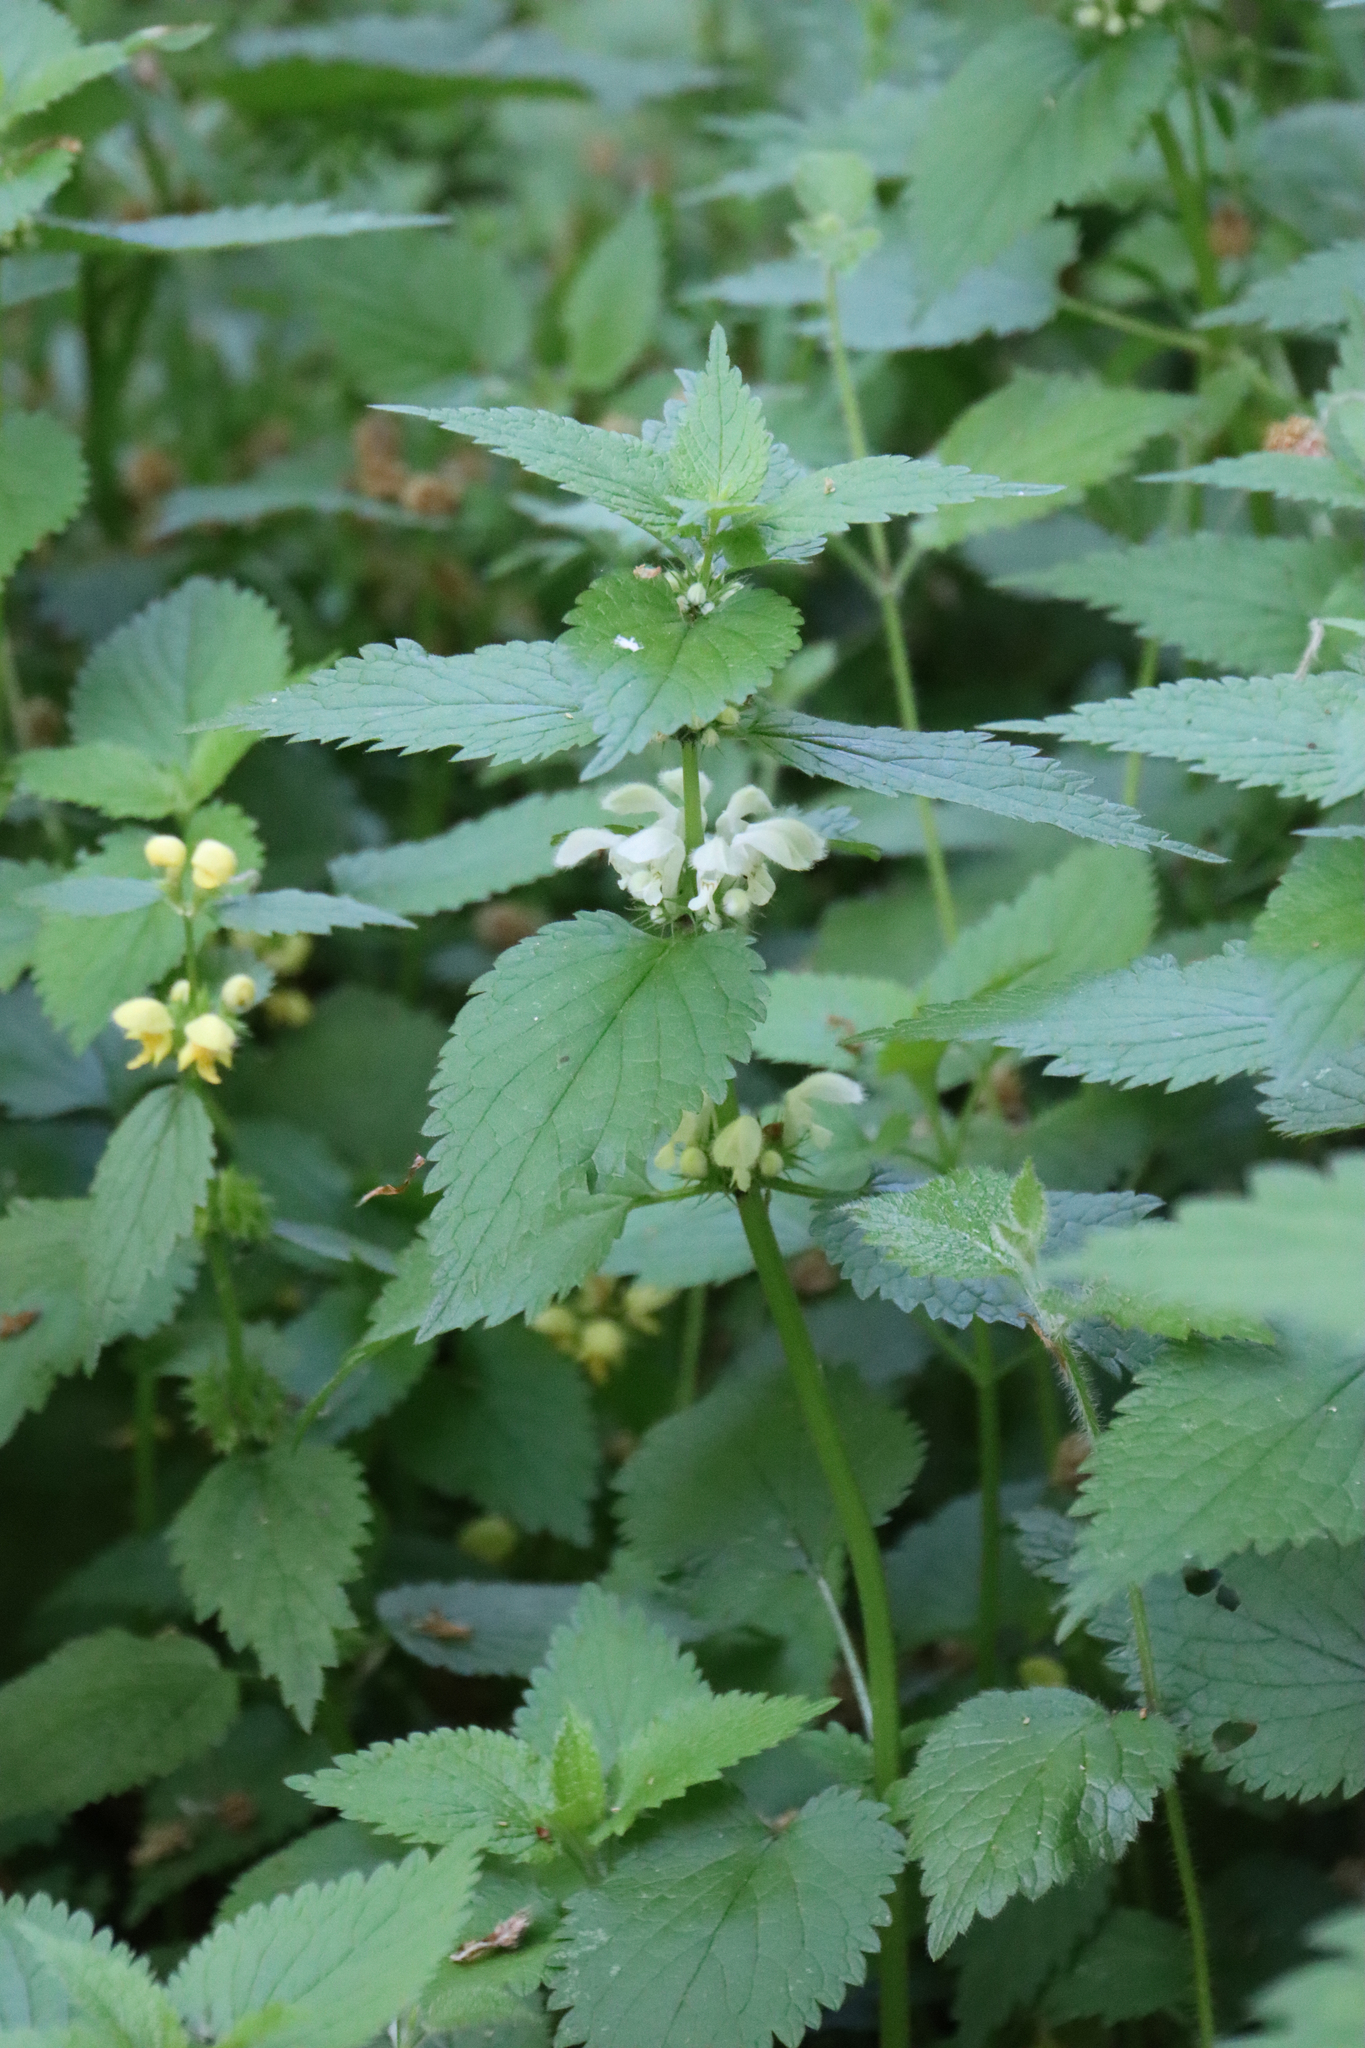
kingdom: Plantae
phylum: Tracheophyta
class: Magnoliopsida
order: Lamiales
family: Lamiaceae
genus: Lamium
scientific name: Lamium album
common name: White dead-nettle
